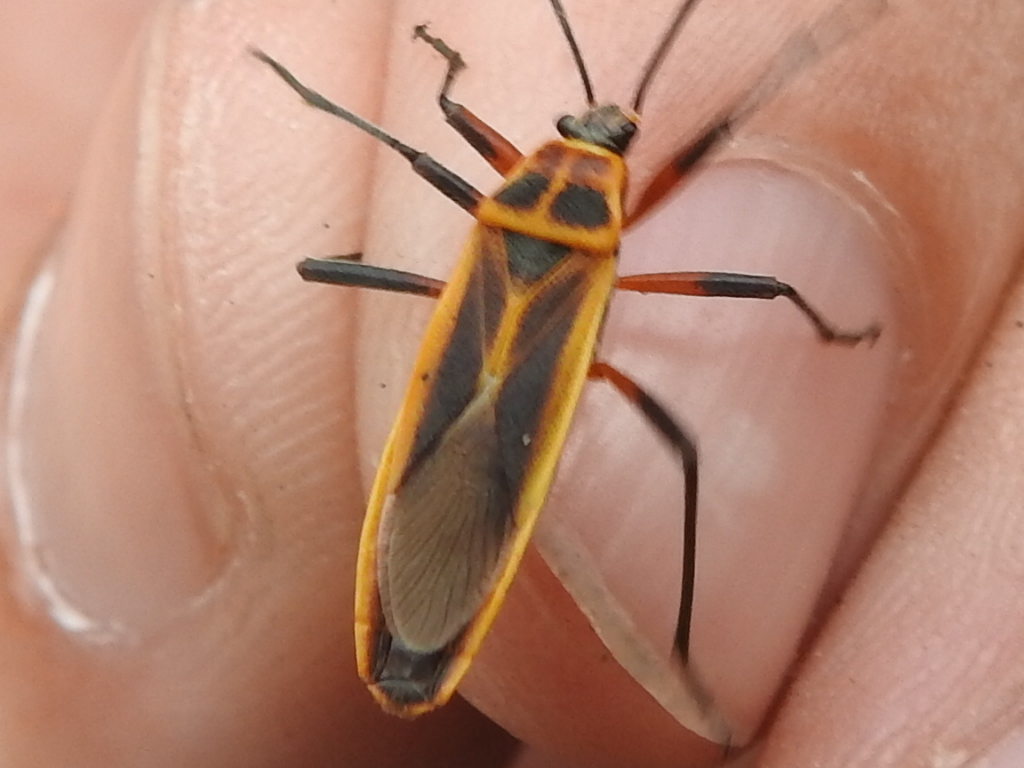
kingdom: Animalia
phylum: Arthropoda
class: Insecta
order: Hemiptera
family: Largidae
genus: Stenomacra
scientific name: Stenomacra marginella
